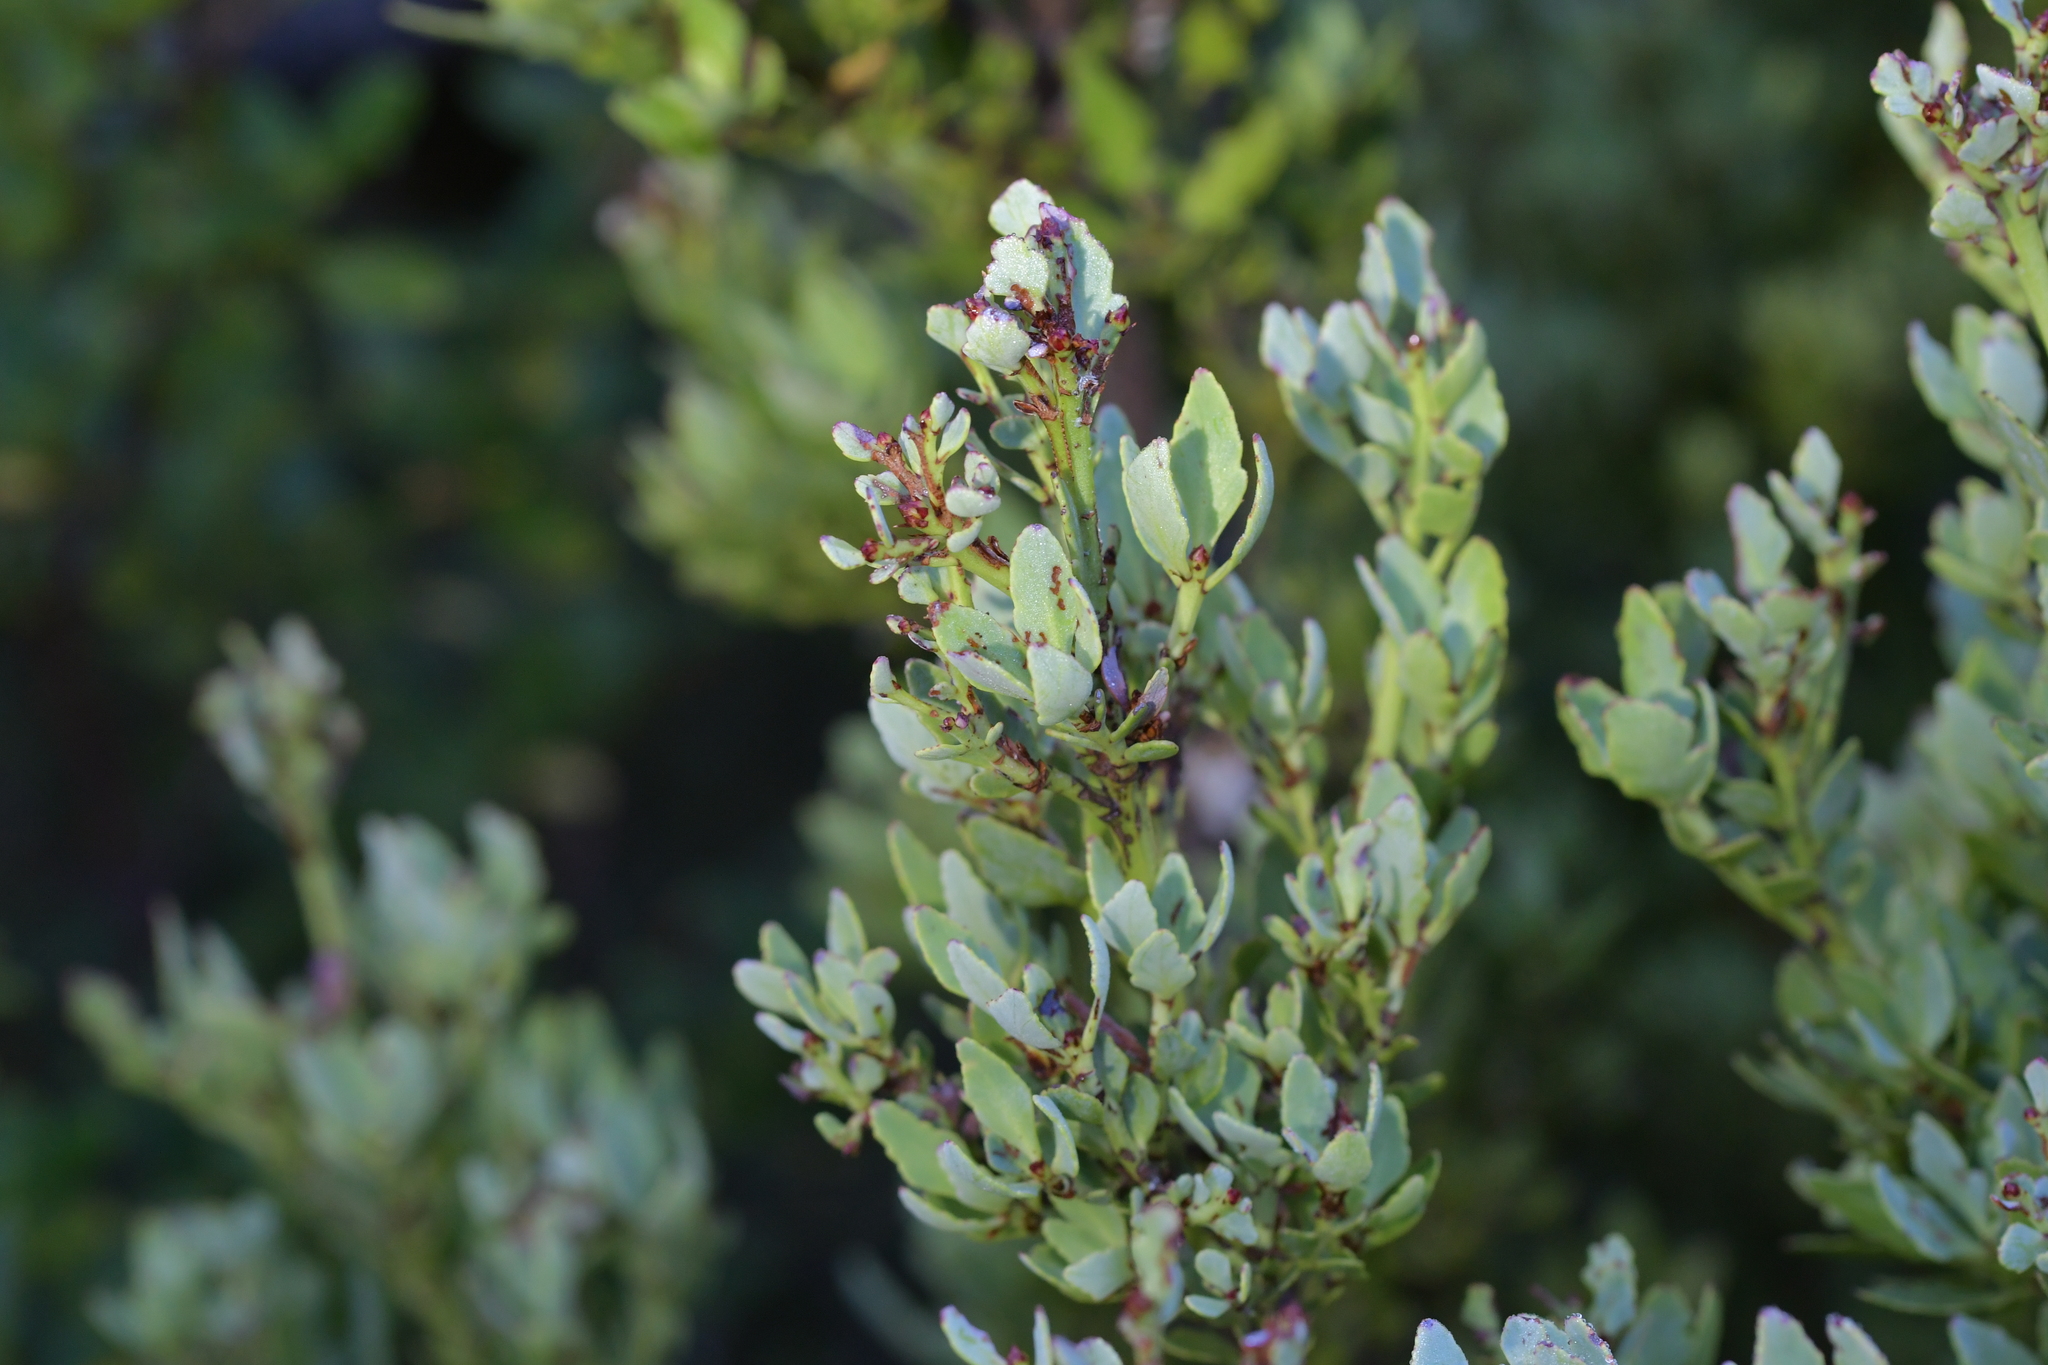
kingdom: Plantae
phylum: Tracheophyta
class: Pinopsida
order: Pinales
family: Phyllocladaceae
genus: Phyllocladus
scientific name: Phyllocladus trichomanoides
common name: Celery pine
